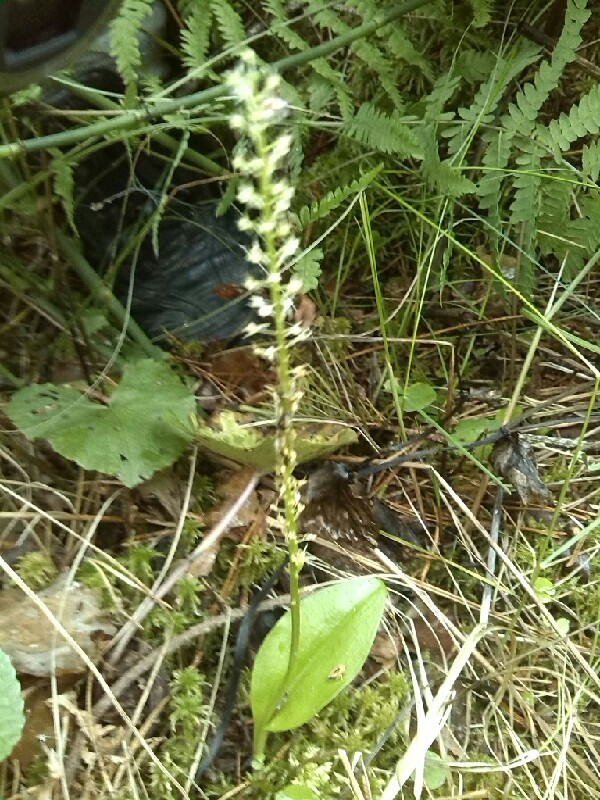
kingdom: Plantae
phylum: Tracheophyta
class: Liliopsida
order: Asparagales
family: Orchidaceae
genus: Malaxis
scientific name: Malaxis monophyllos
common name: White adder's-mouth
